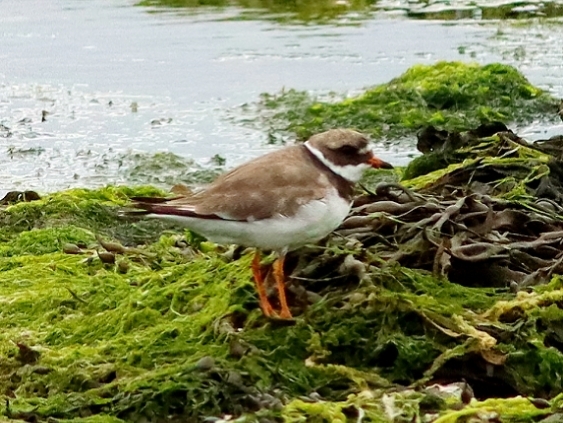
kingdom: Animalia
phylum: Chordata
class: Aves
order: Charadriiformes
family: Charadriidae
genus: Charadrius
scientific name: Charadrius hiaticula
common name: Common ringed plover
